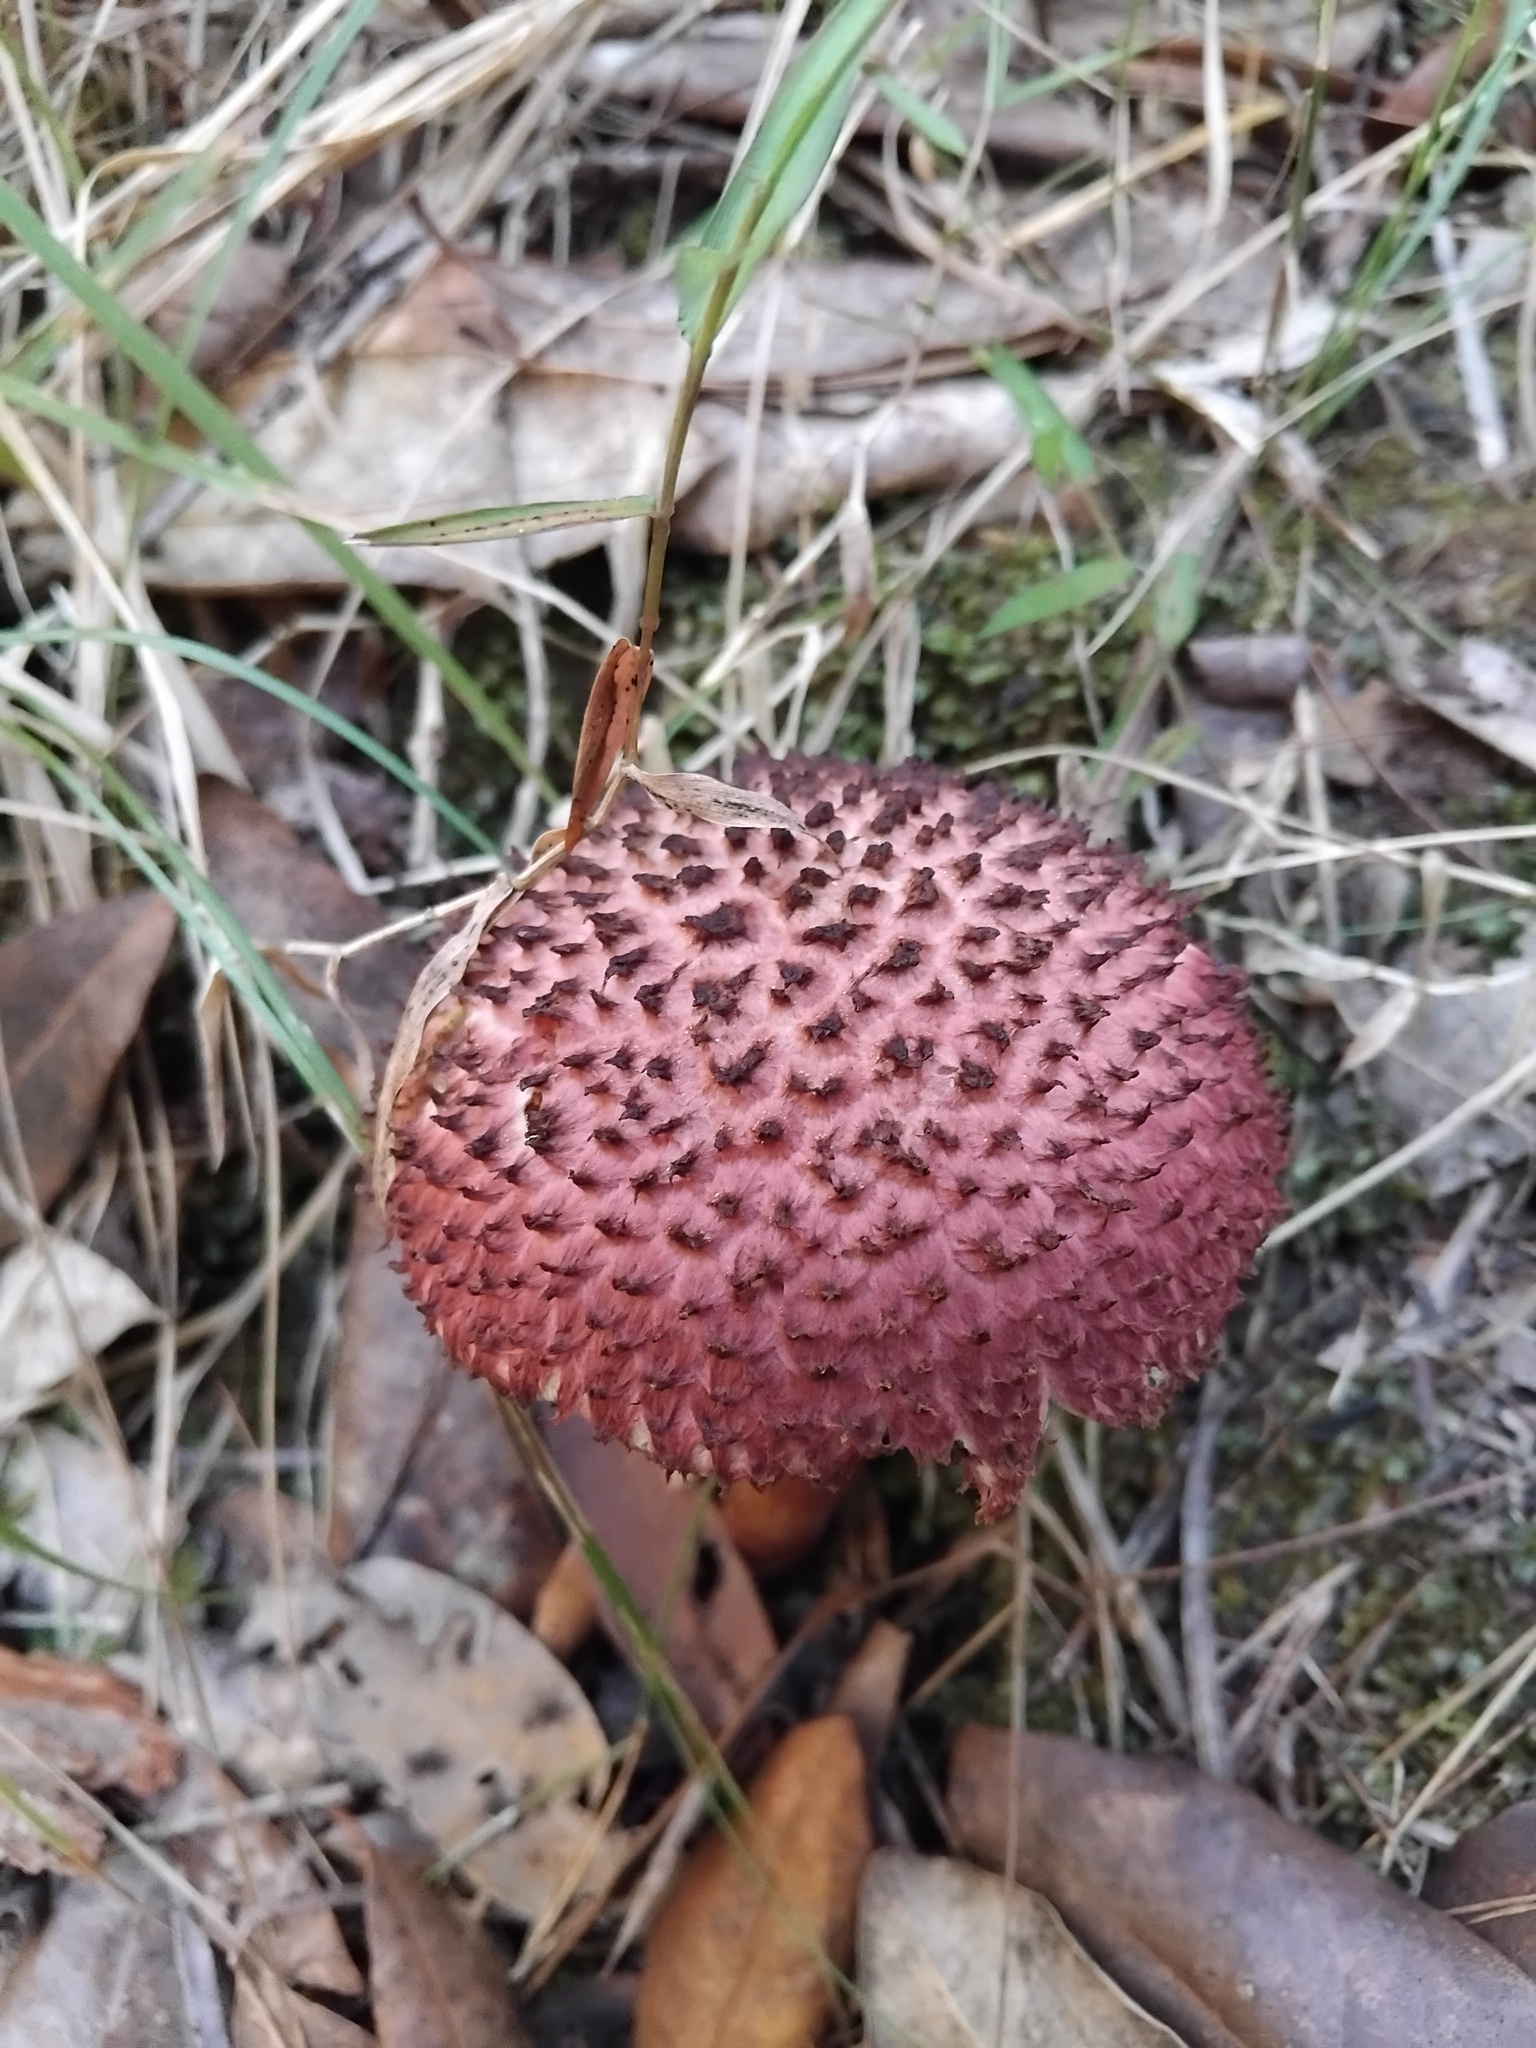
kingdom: Fungi
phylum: Basidiomycota
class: Agaricomycetes
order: Boletales
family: Boletaceae
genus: Boletellus
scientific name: Boletellus emodensis
